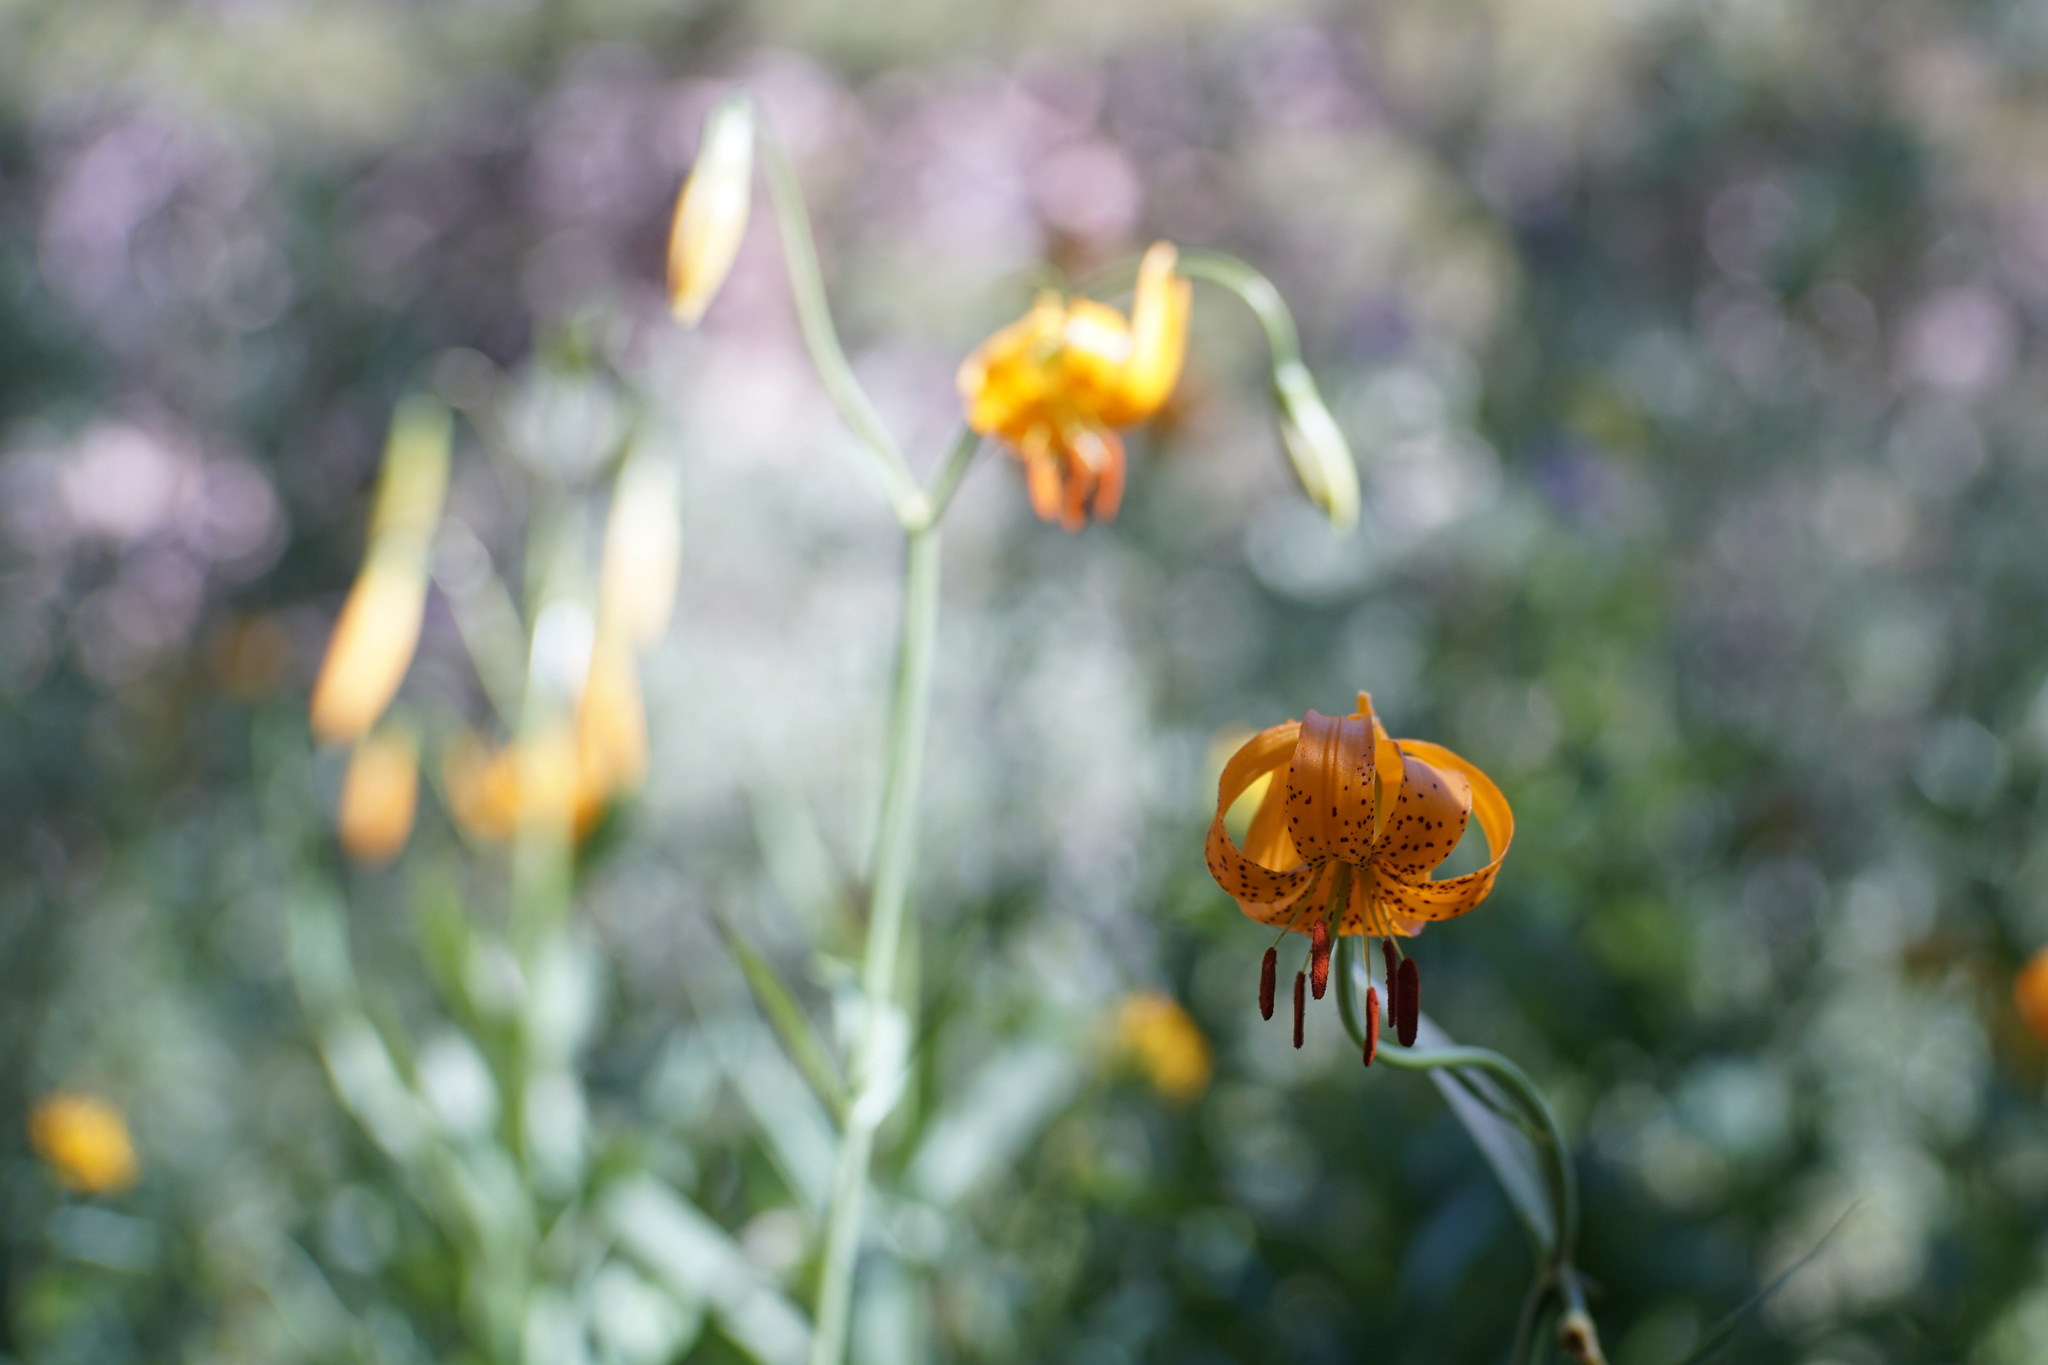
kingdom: Plantae
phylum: Tracheophyta
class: Liliopsida
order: Liliales
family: Liliaceae
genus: Lilium
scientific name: Lilium kelleyanum
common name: Kelley's lily
